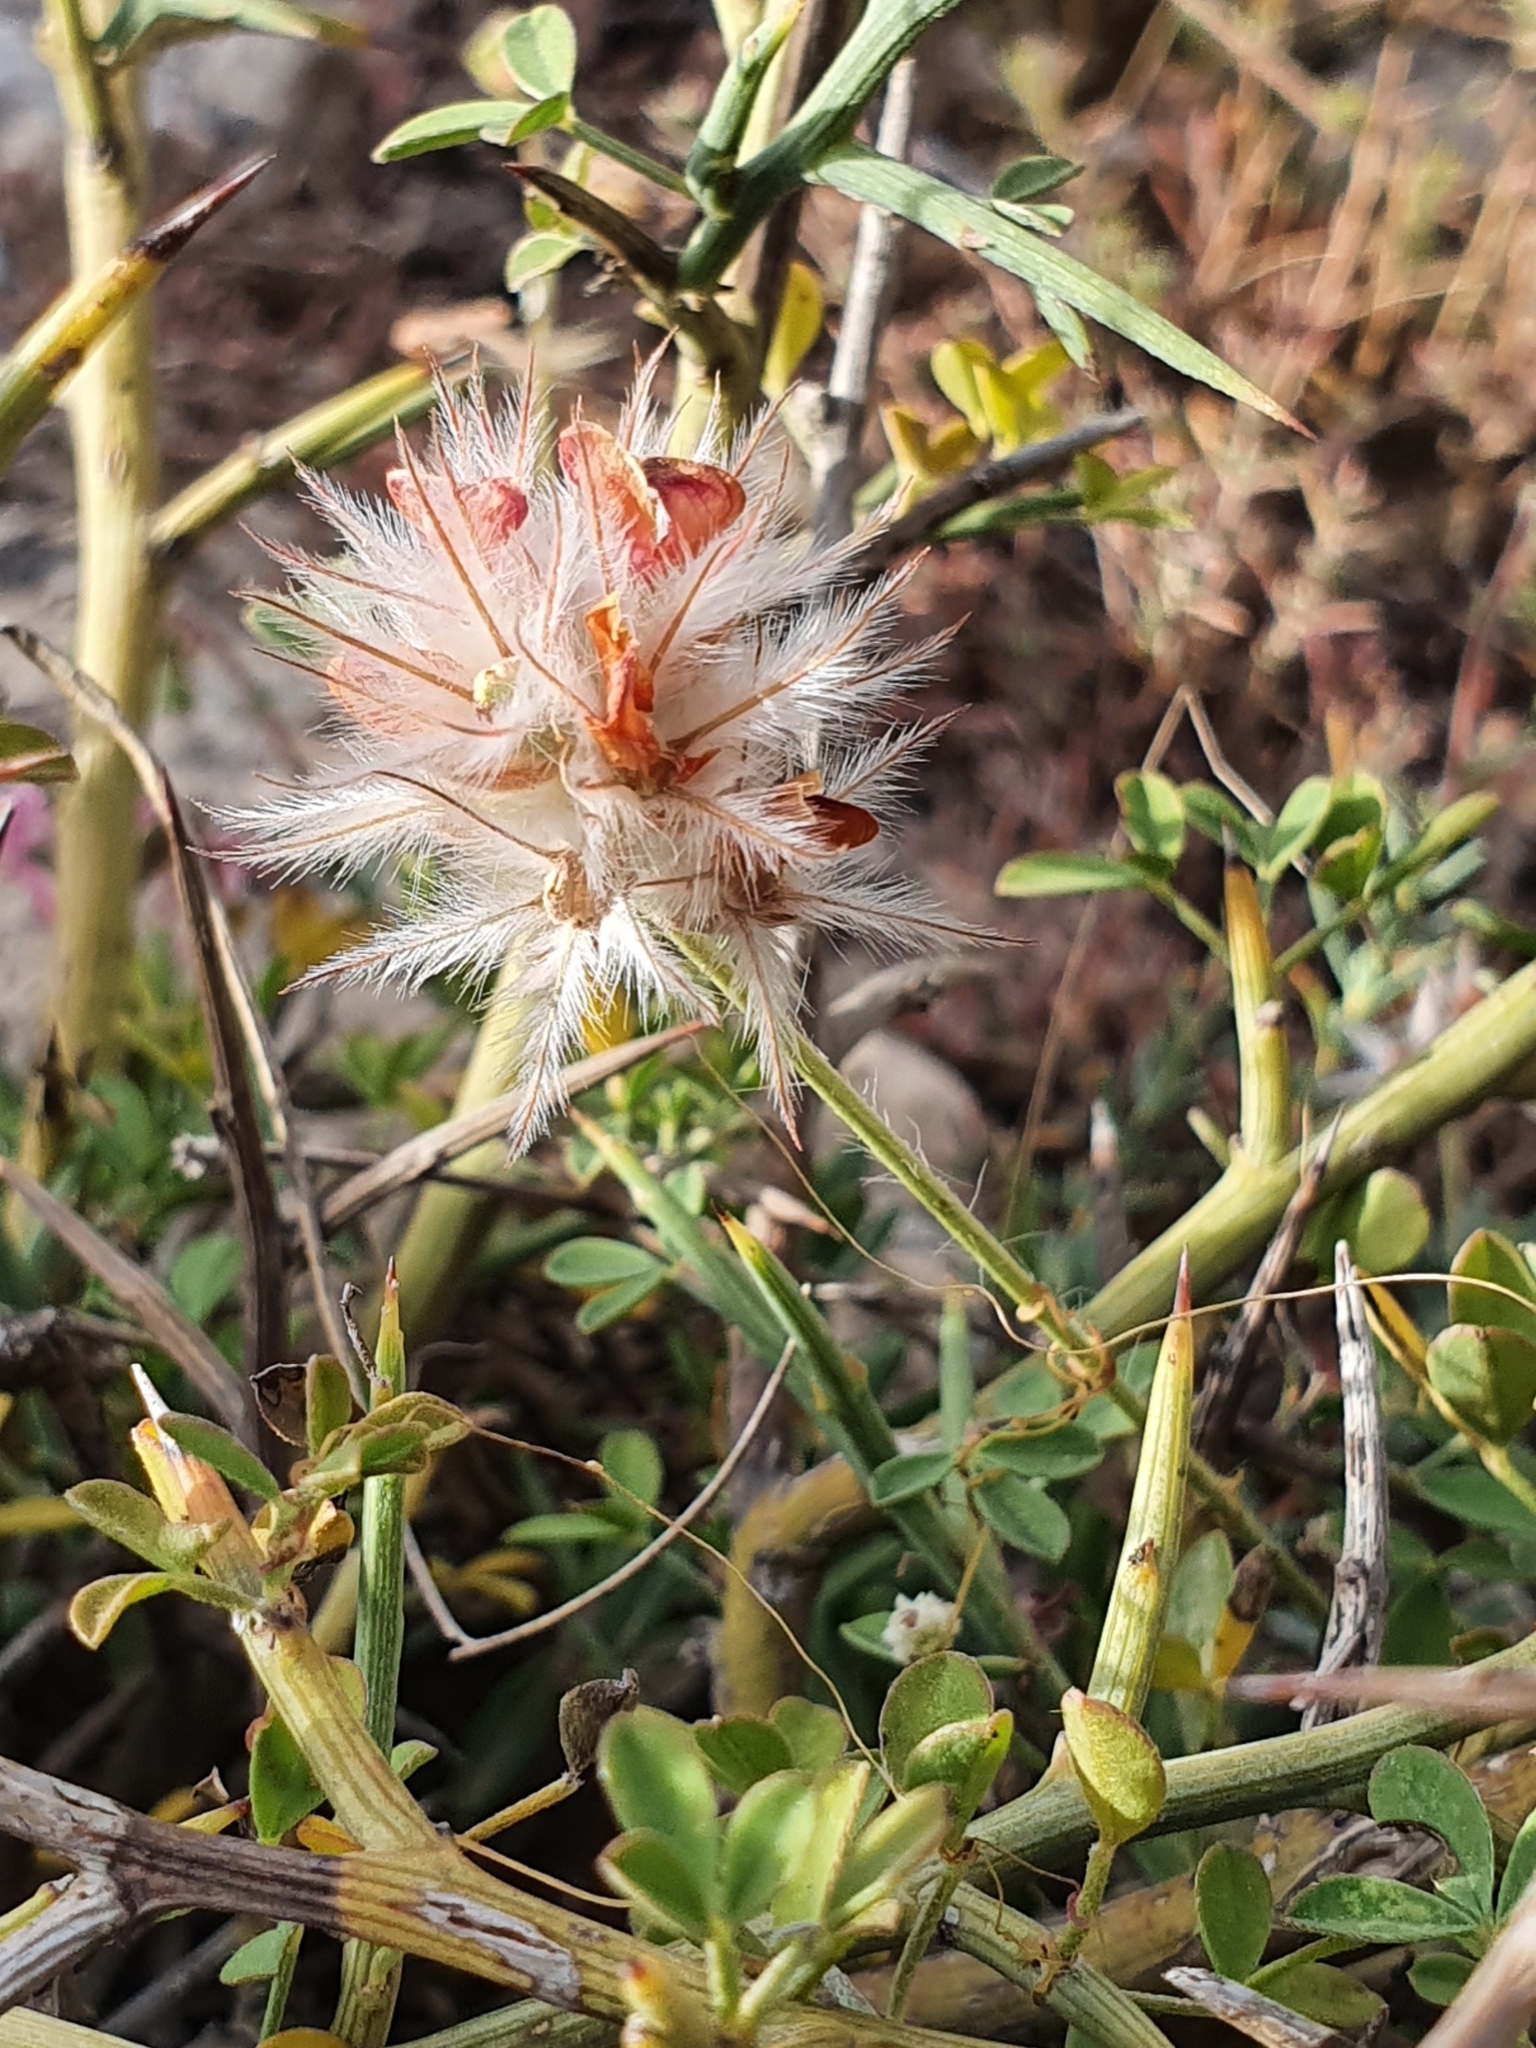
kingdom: Plantae
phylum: Tracheophyta
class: Magnoliopsida
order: Fabales
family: Fabaceae
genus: Ebenus
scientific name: Ebenus pinnata
